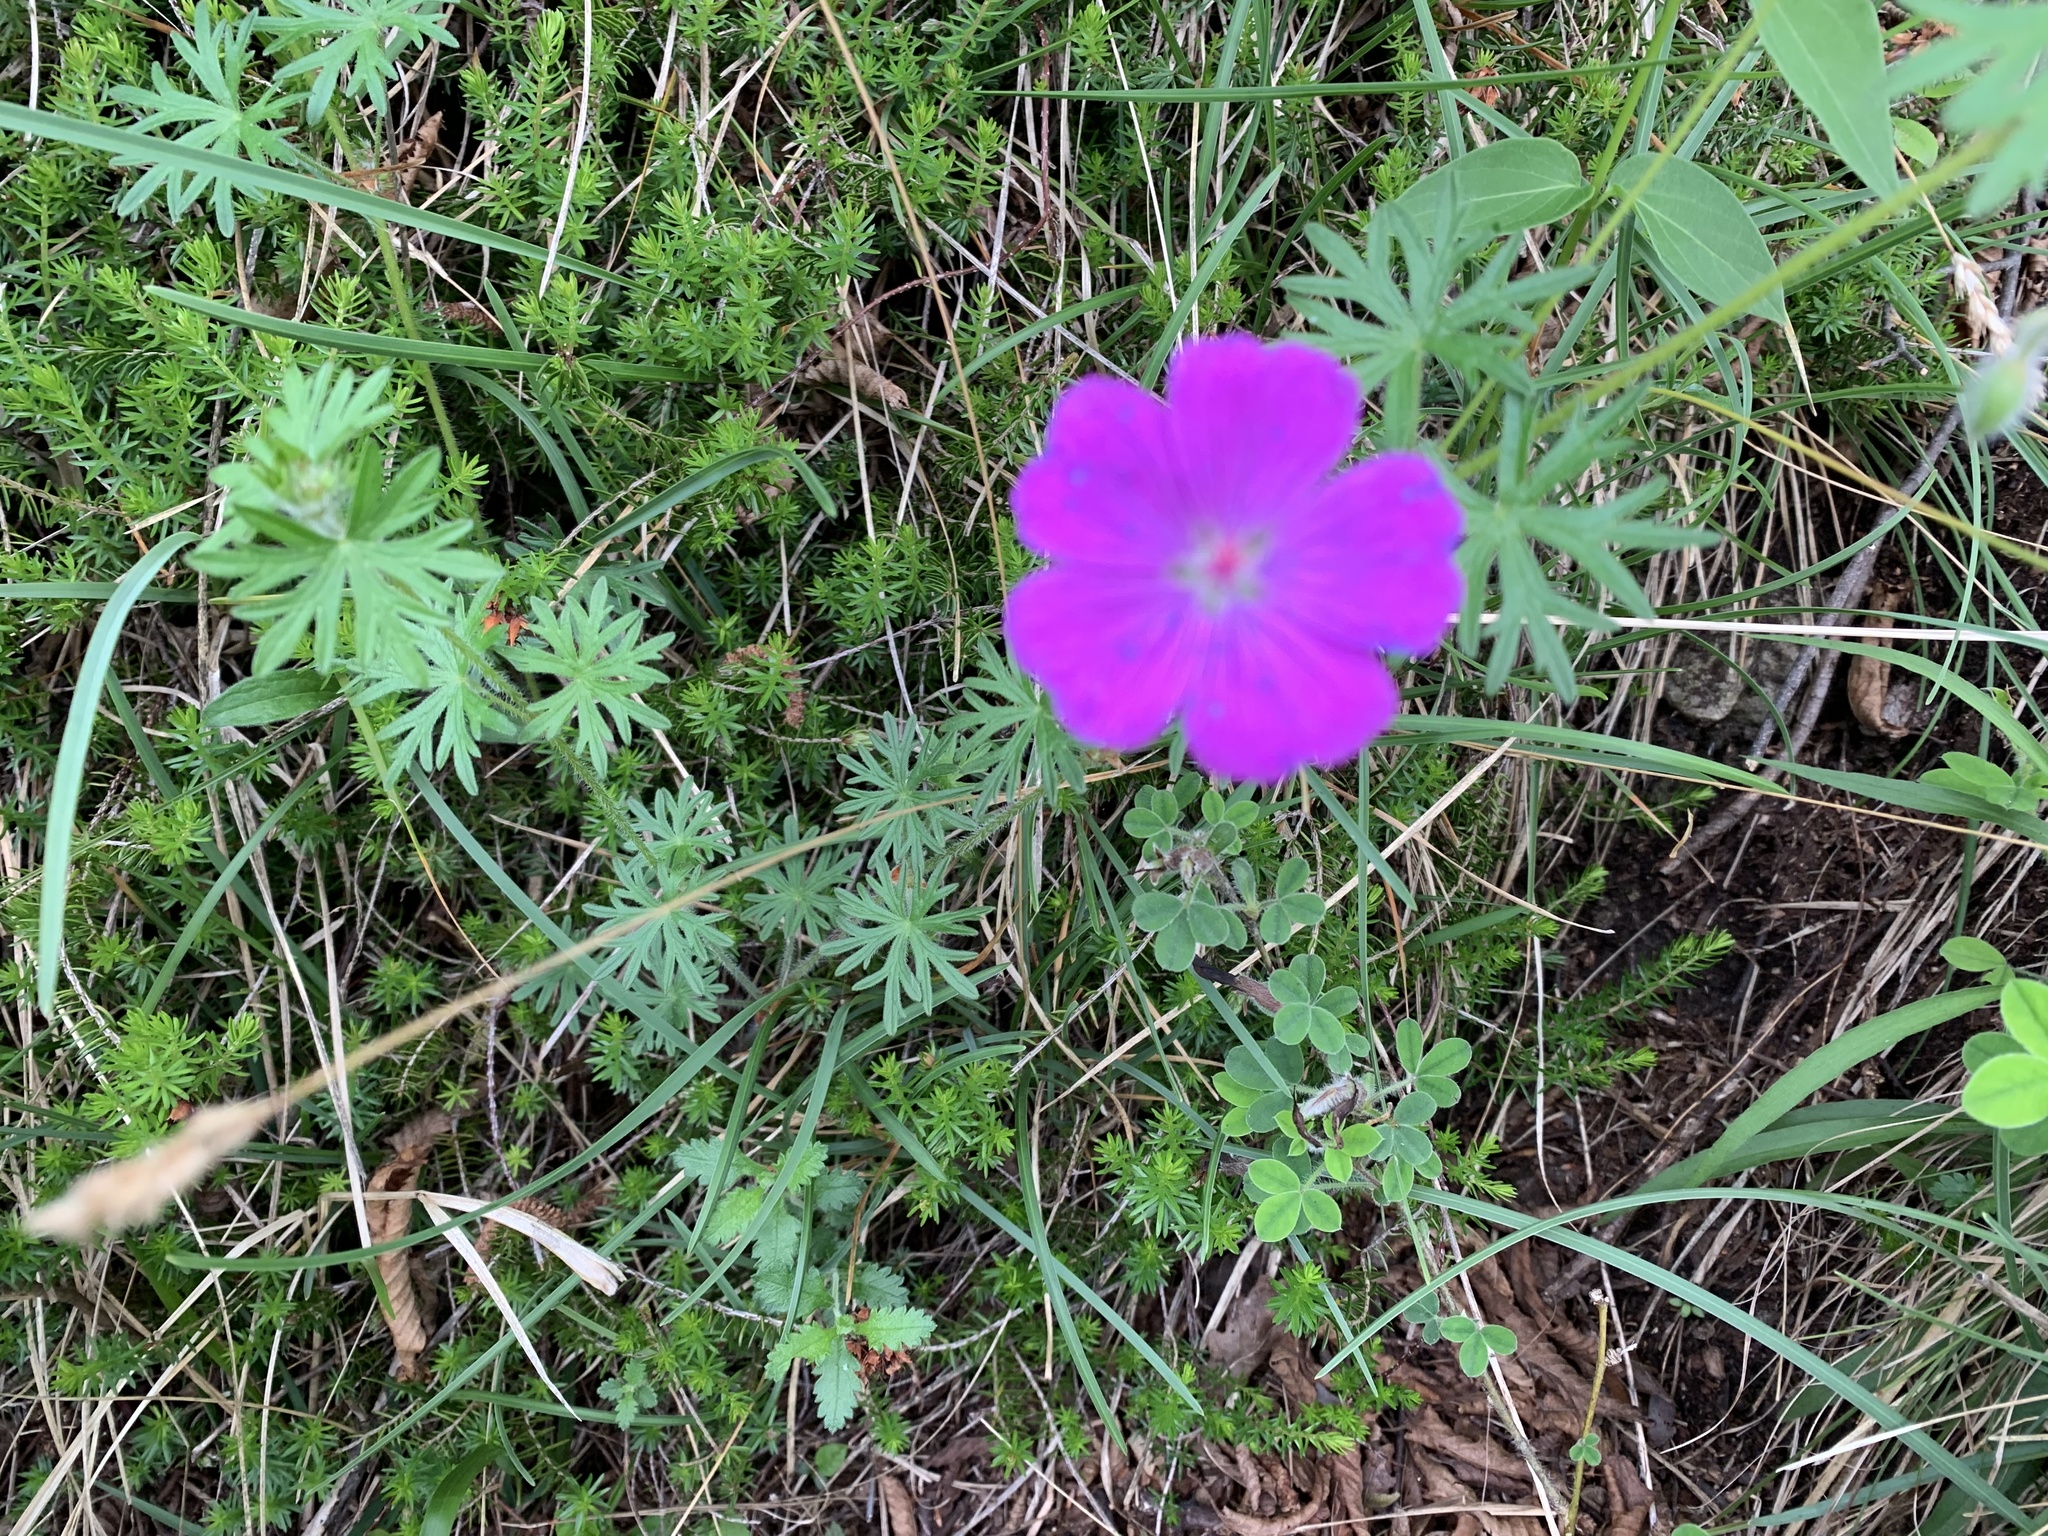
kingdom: Plantae
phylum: Tracheophyta
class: Magnoliopsida
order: Geraniales
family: Geraniaceae
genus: Geranium
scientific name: Geranium sanguineum
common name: Bloody crane's-bill
